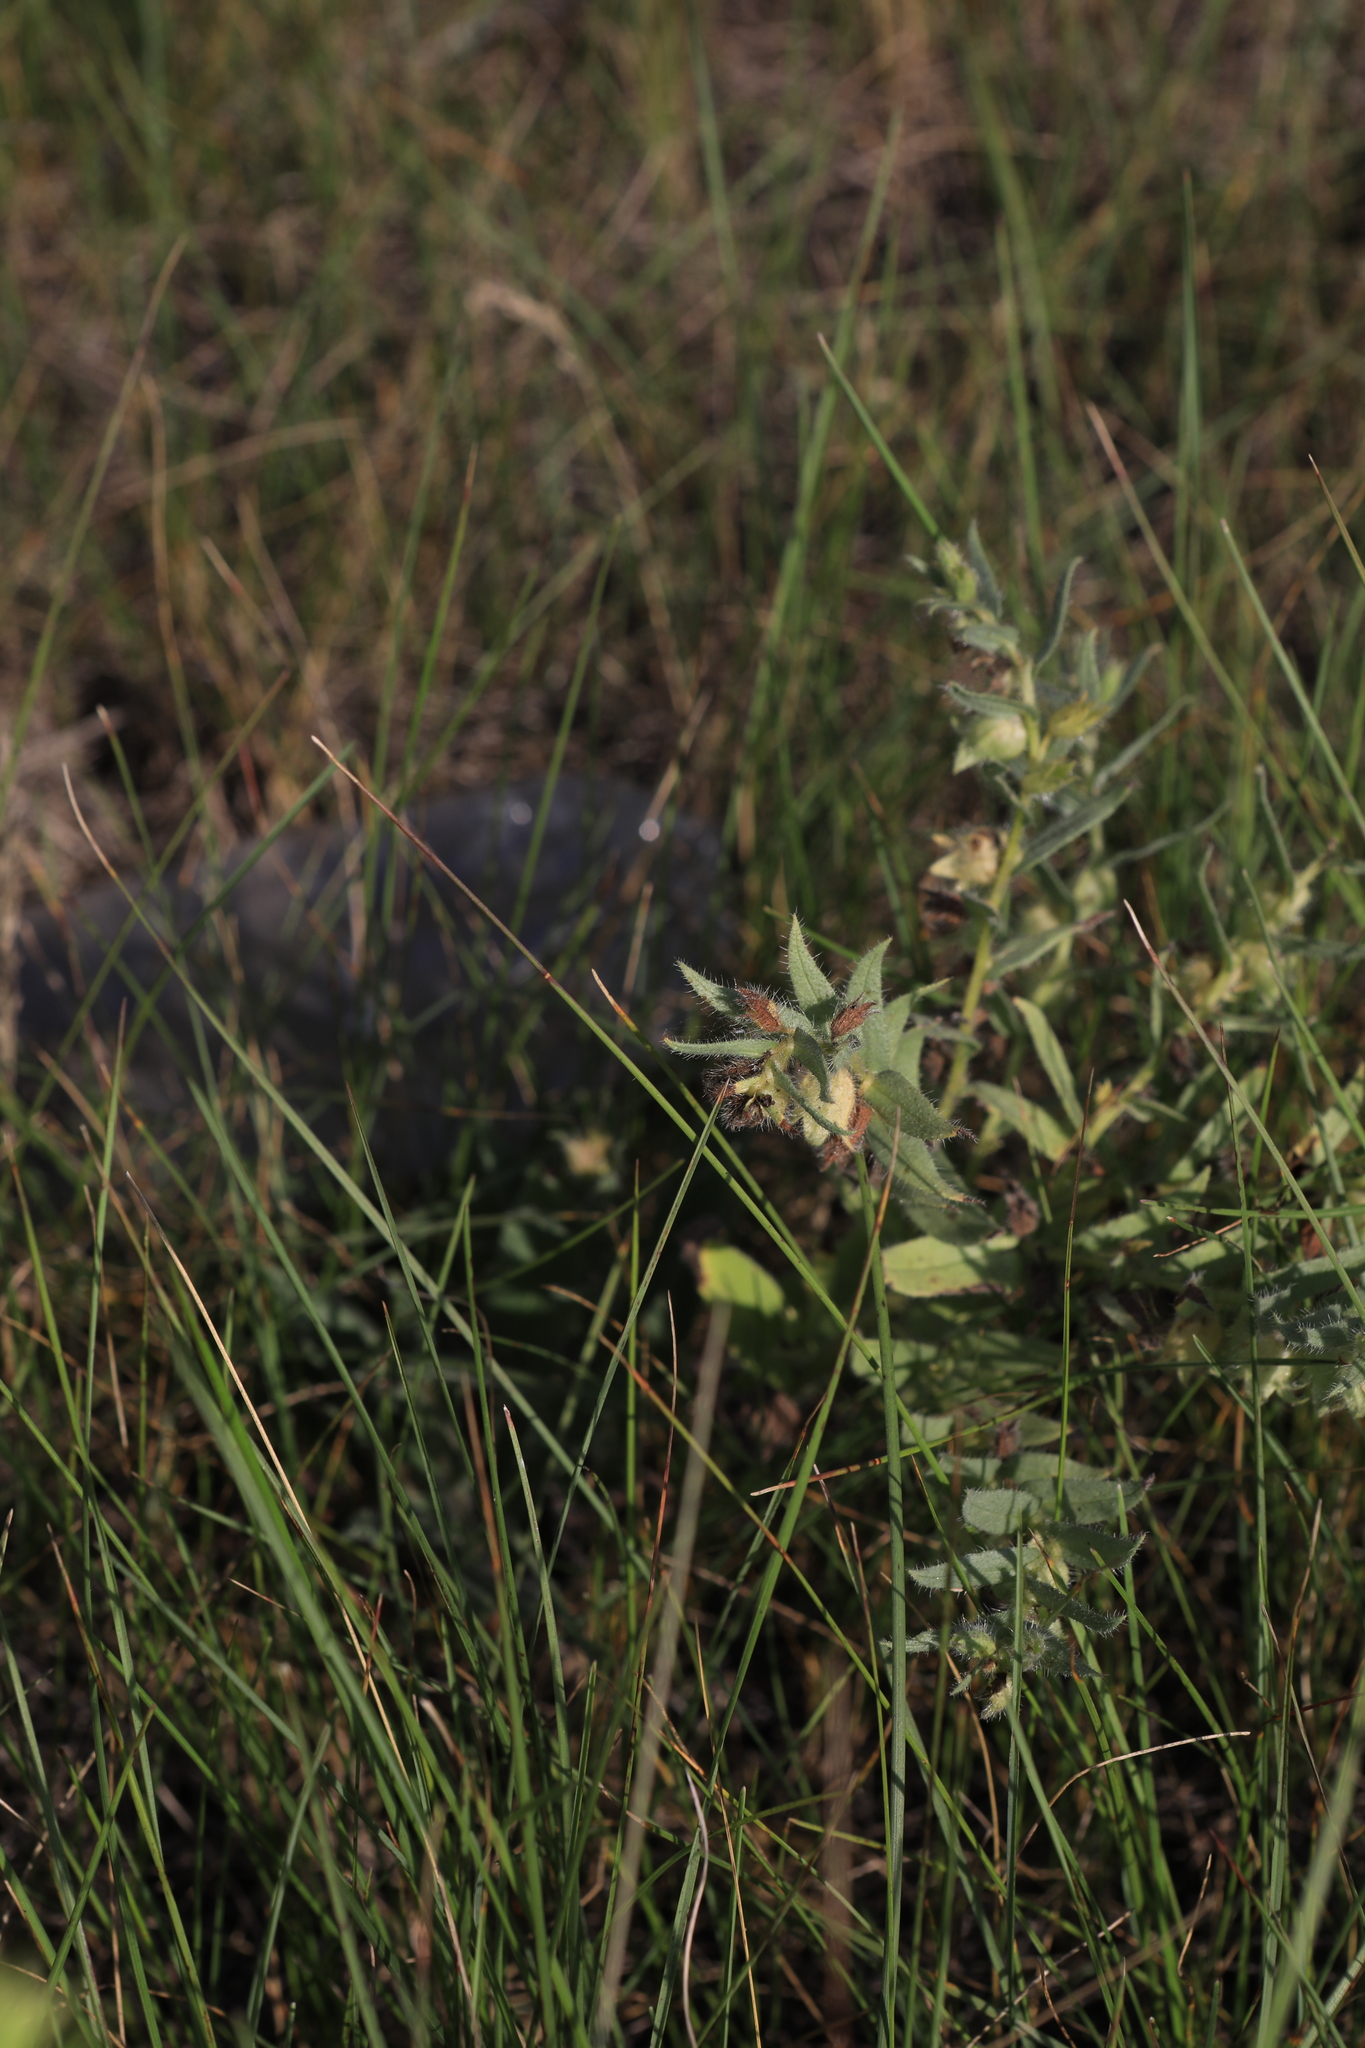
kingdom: Plantae
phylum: Tracheophyta
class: Magnoliopsida
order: Boraginales
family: Boraginaceae
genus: Nonea
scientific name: Nonea pulla
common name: Brown nonea
